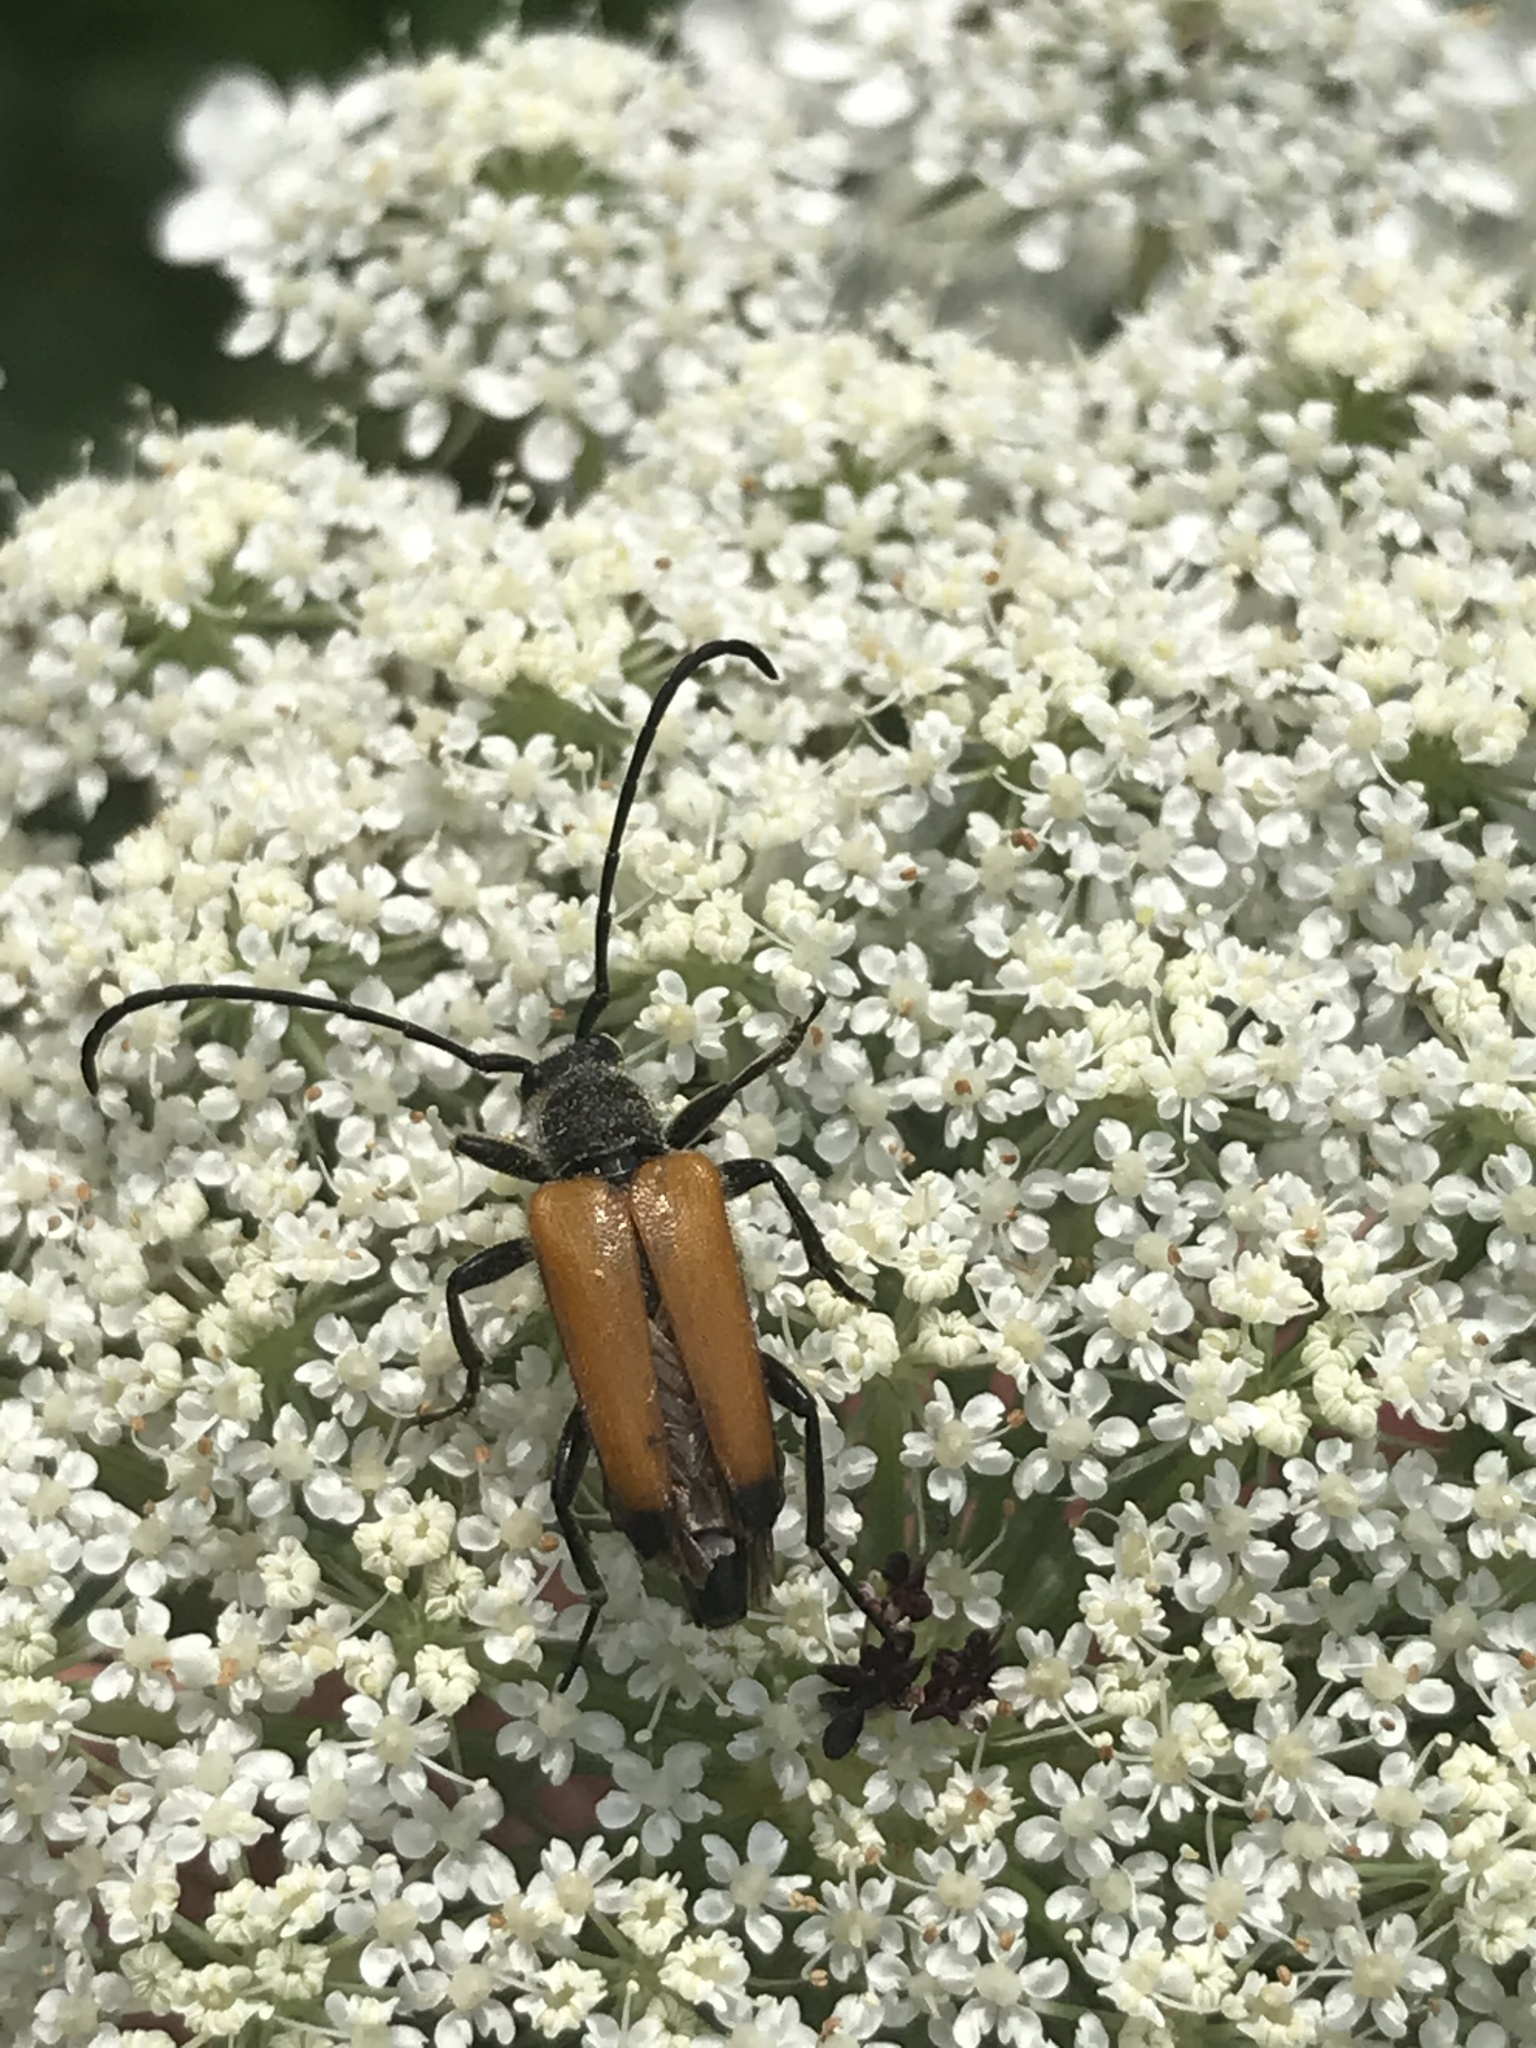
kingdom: Animalia
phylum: Arthropoda
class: Insecta
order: Coleoptera
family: Cerambycidae
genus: Paracorymbia
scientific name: Paracorymbia fulva
